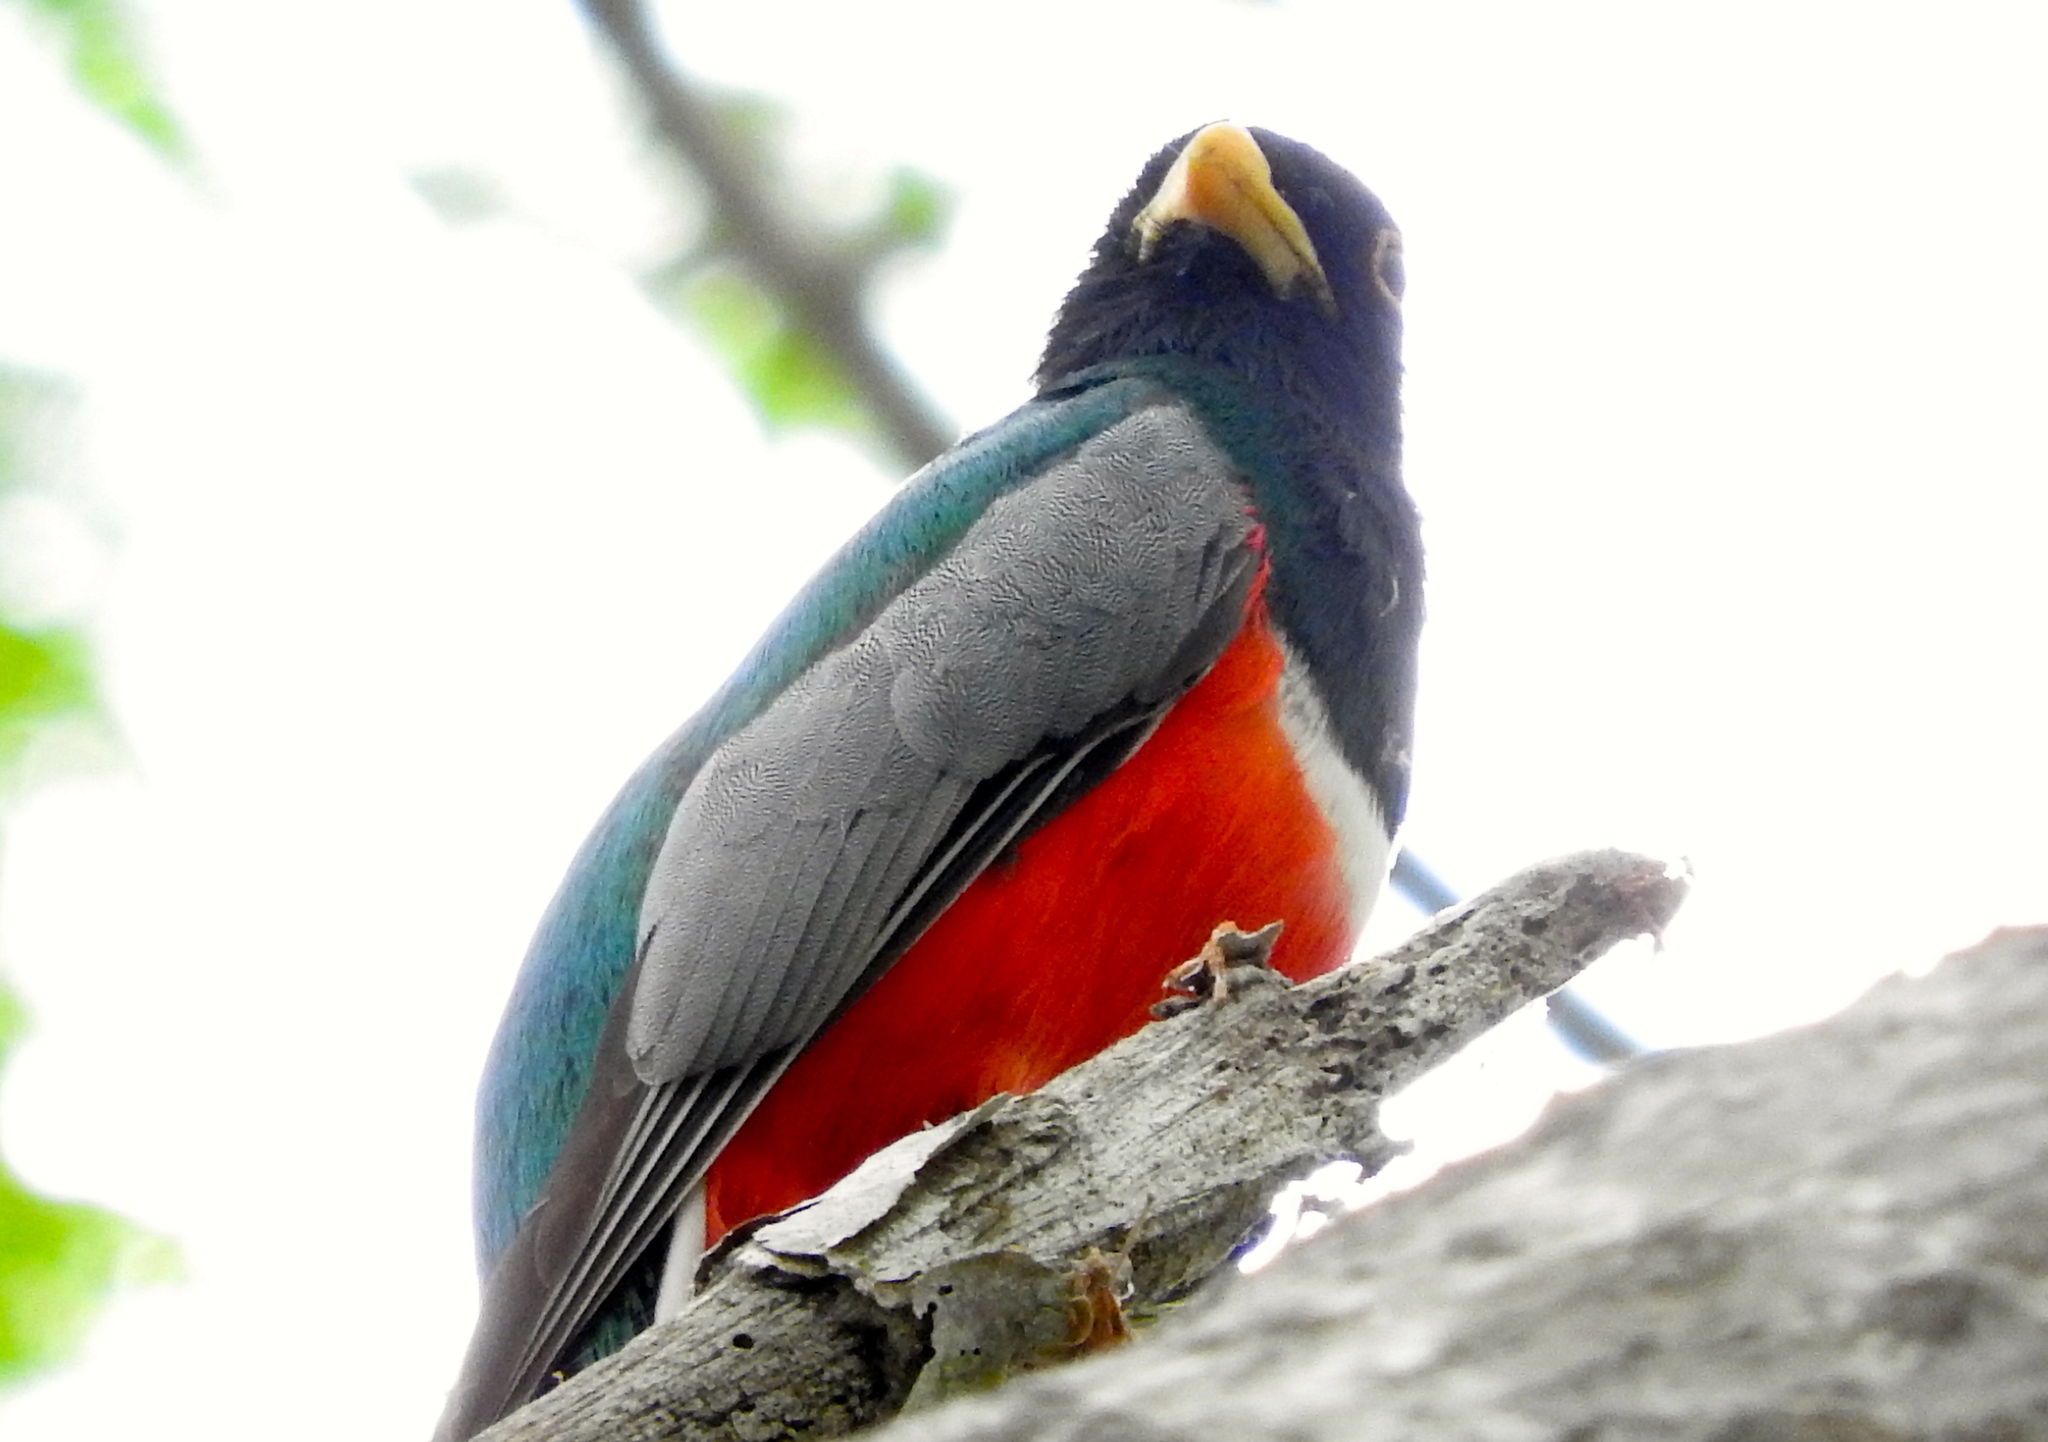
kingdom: Animalia
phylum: Chordata
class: Aves
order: Trogoniformes
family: Trogonidae
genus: Trogon
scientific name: Trogon elegans
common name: Elegant trogon
